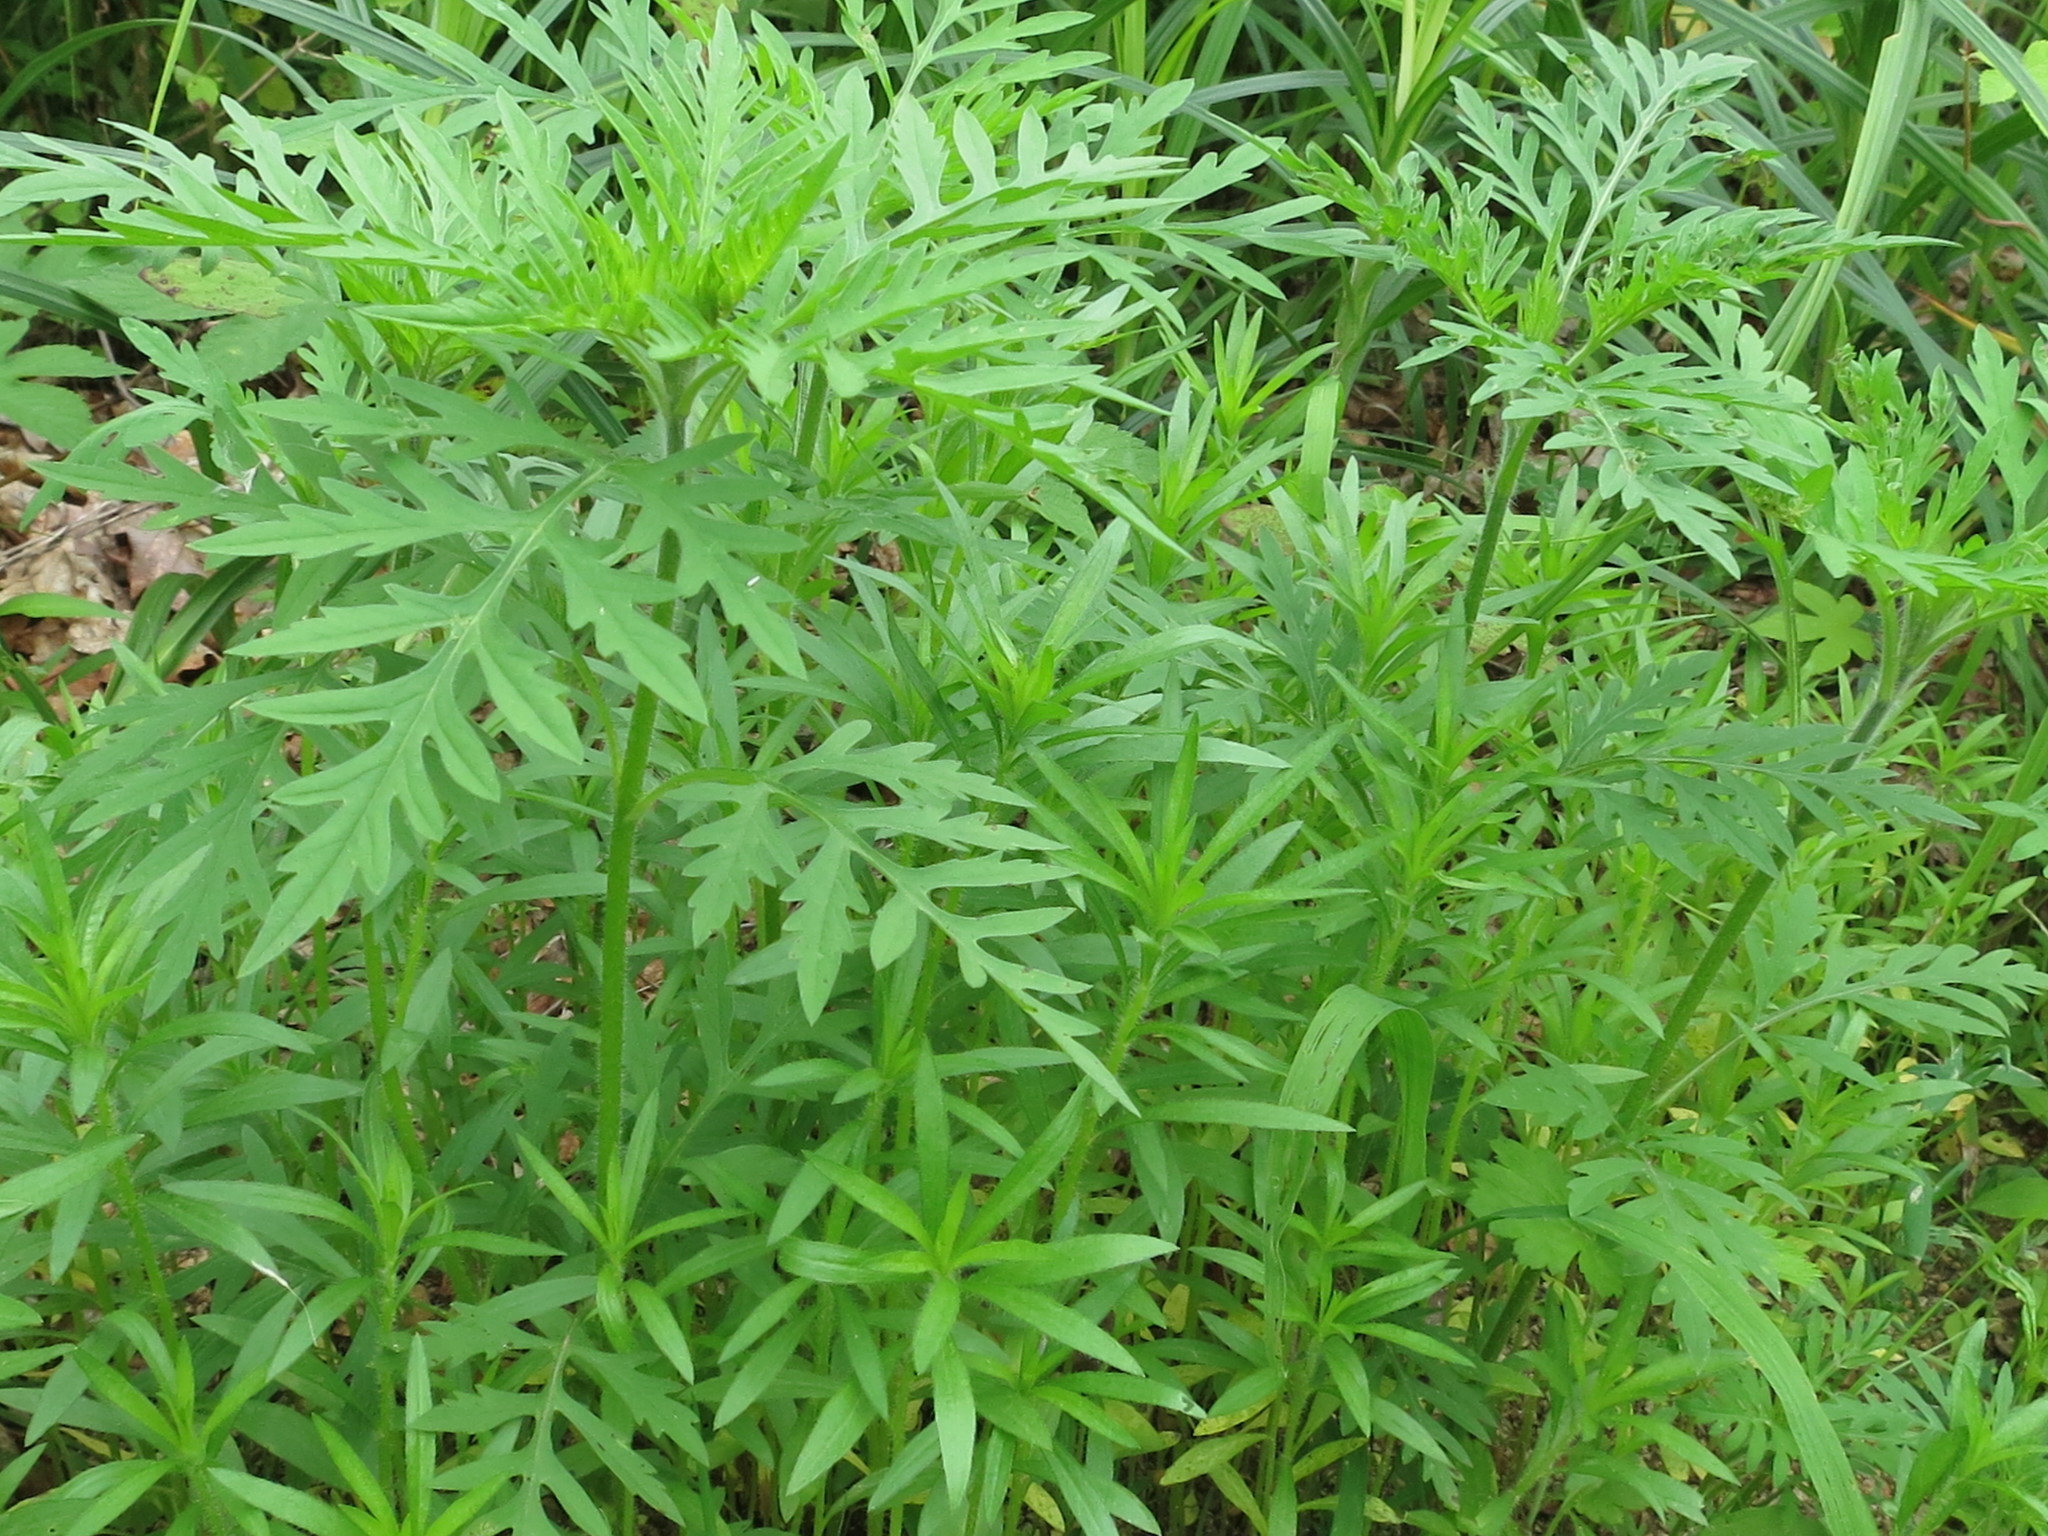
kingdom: Plantae
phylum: Tracheophyta
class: Magnoliopsida
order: Asterales
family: Asteraceae
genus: Ambrosia
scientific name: Ambrosia artemisiifolia
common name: Annual ragweed
